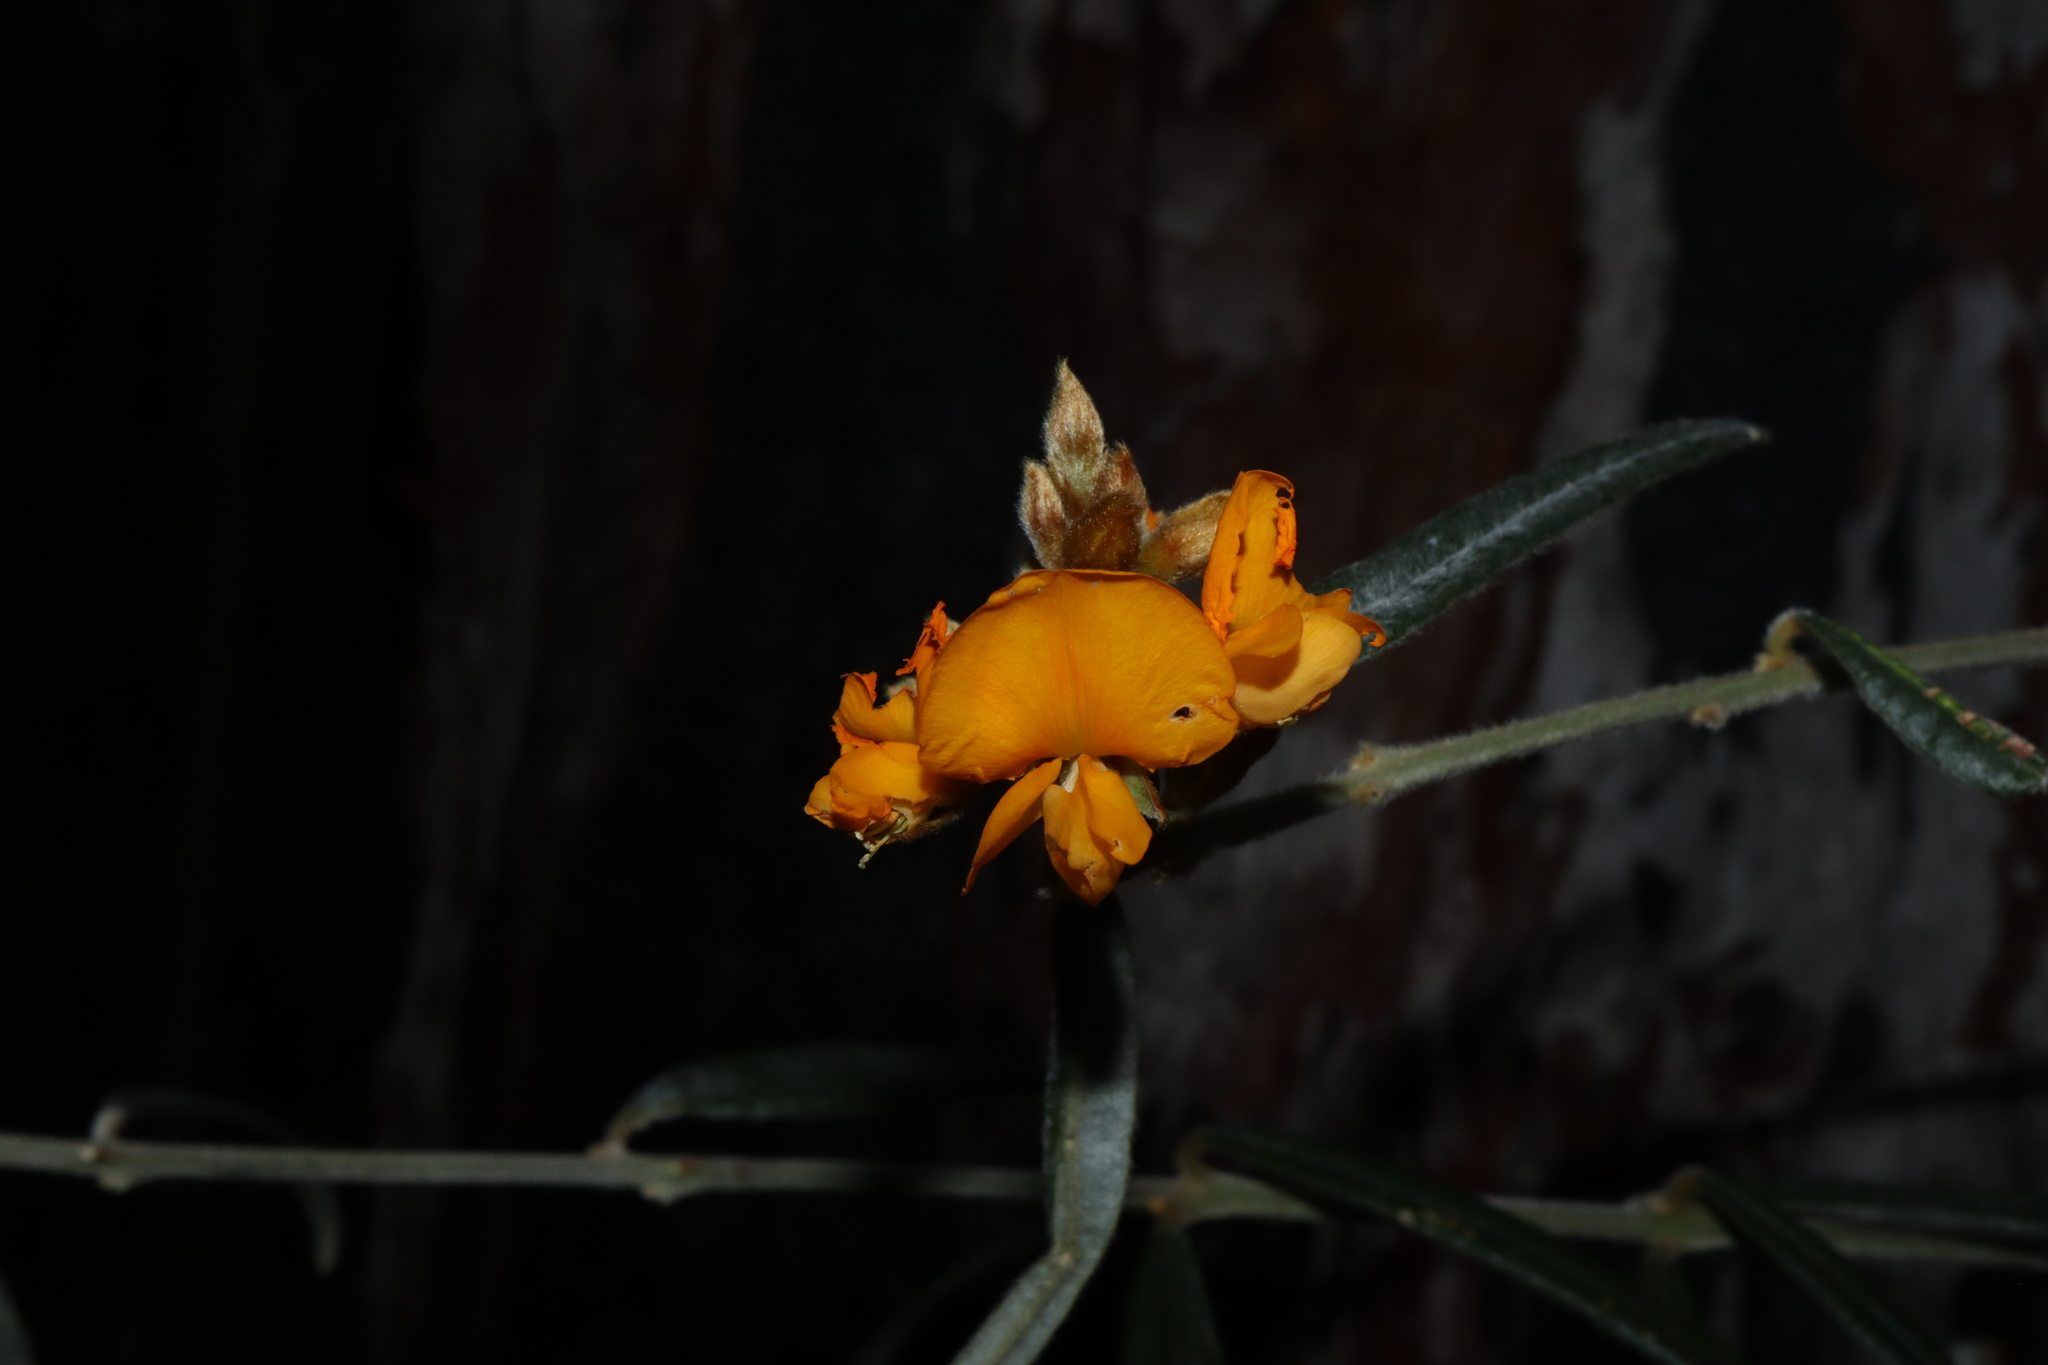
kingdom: Plantae
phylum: Tracheophyta
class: Magnoliopsida
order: Fabales
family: Fabaceae
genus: Oxylobium
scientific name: Oxylobium robustum
